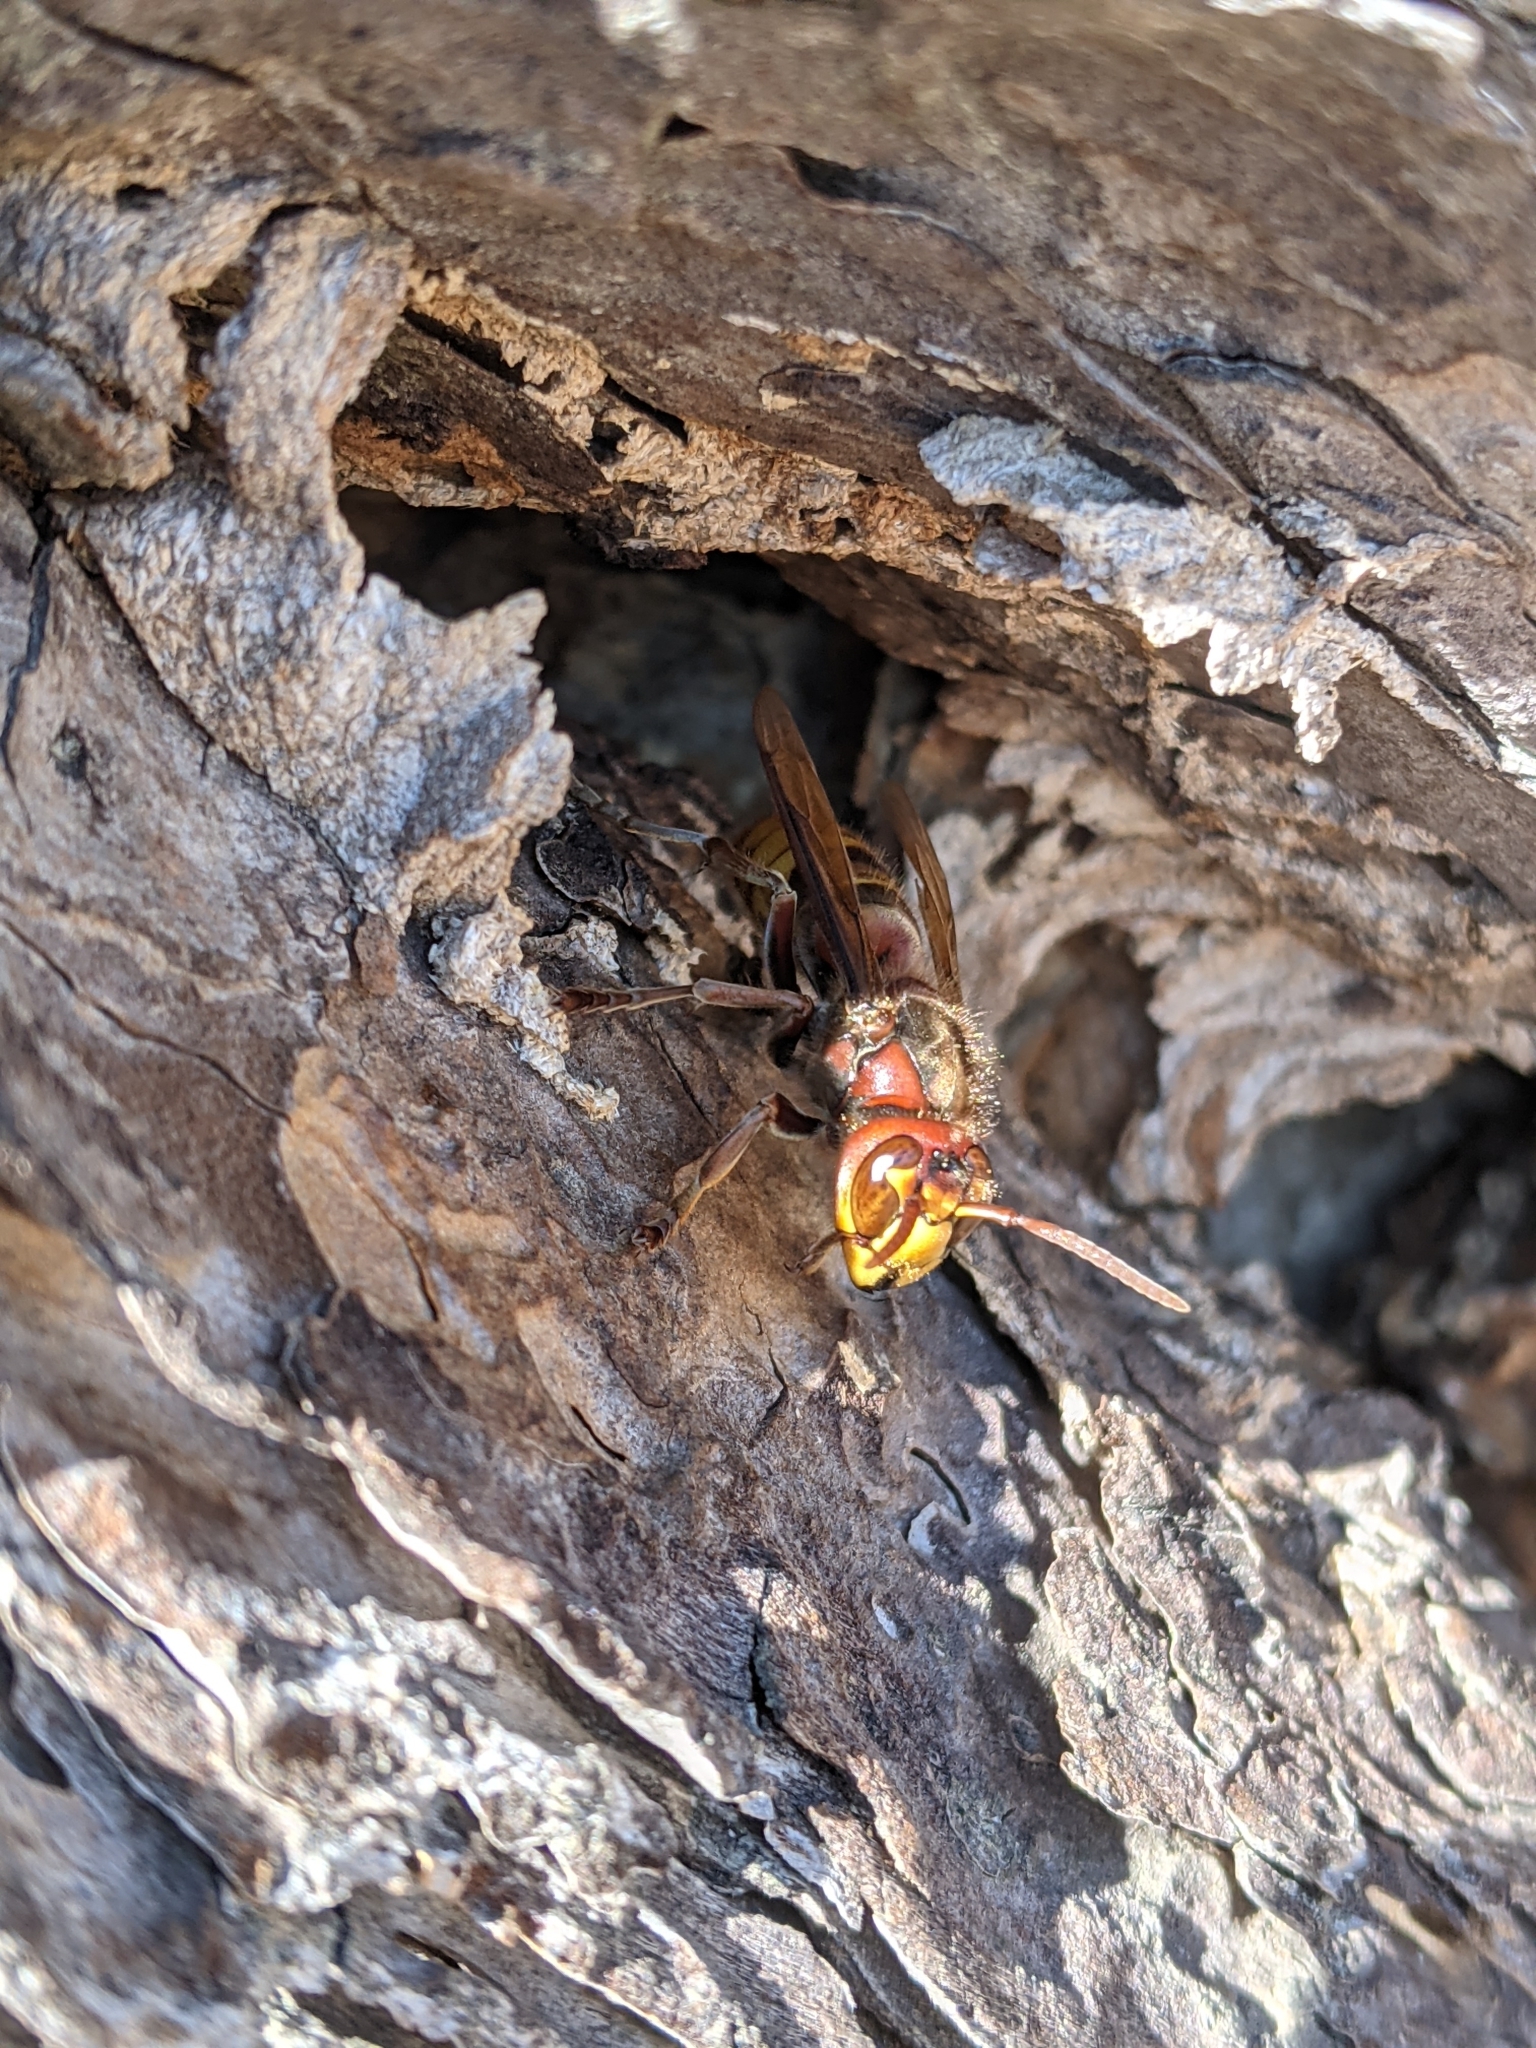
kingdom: Animalia
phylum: Arthropoda
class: Insecta
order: Hymenoptera
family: Vespidae
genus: Vespa
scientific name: Vespa crabro
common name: Hornet
